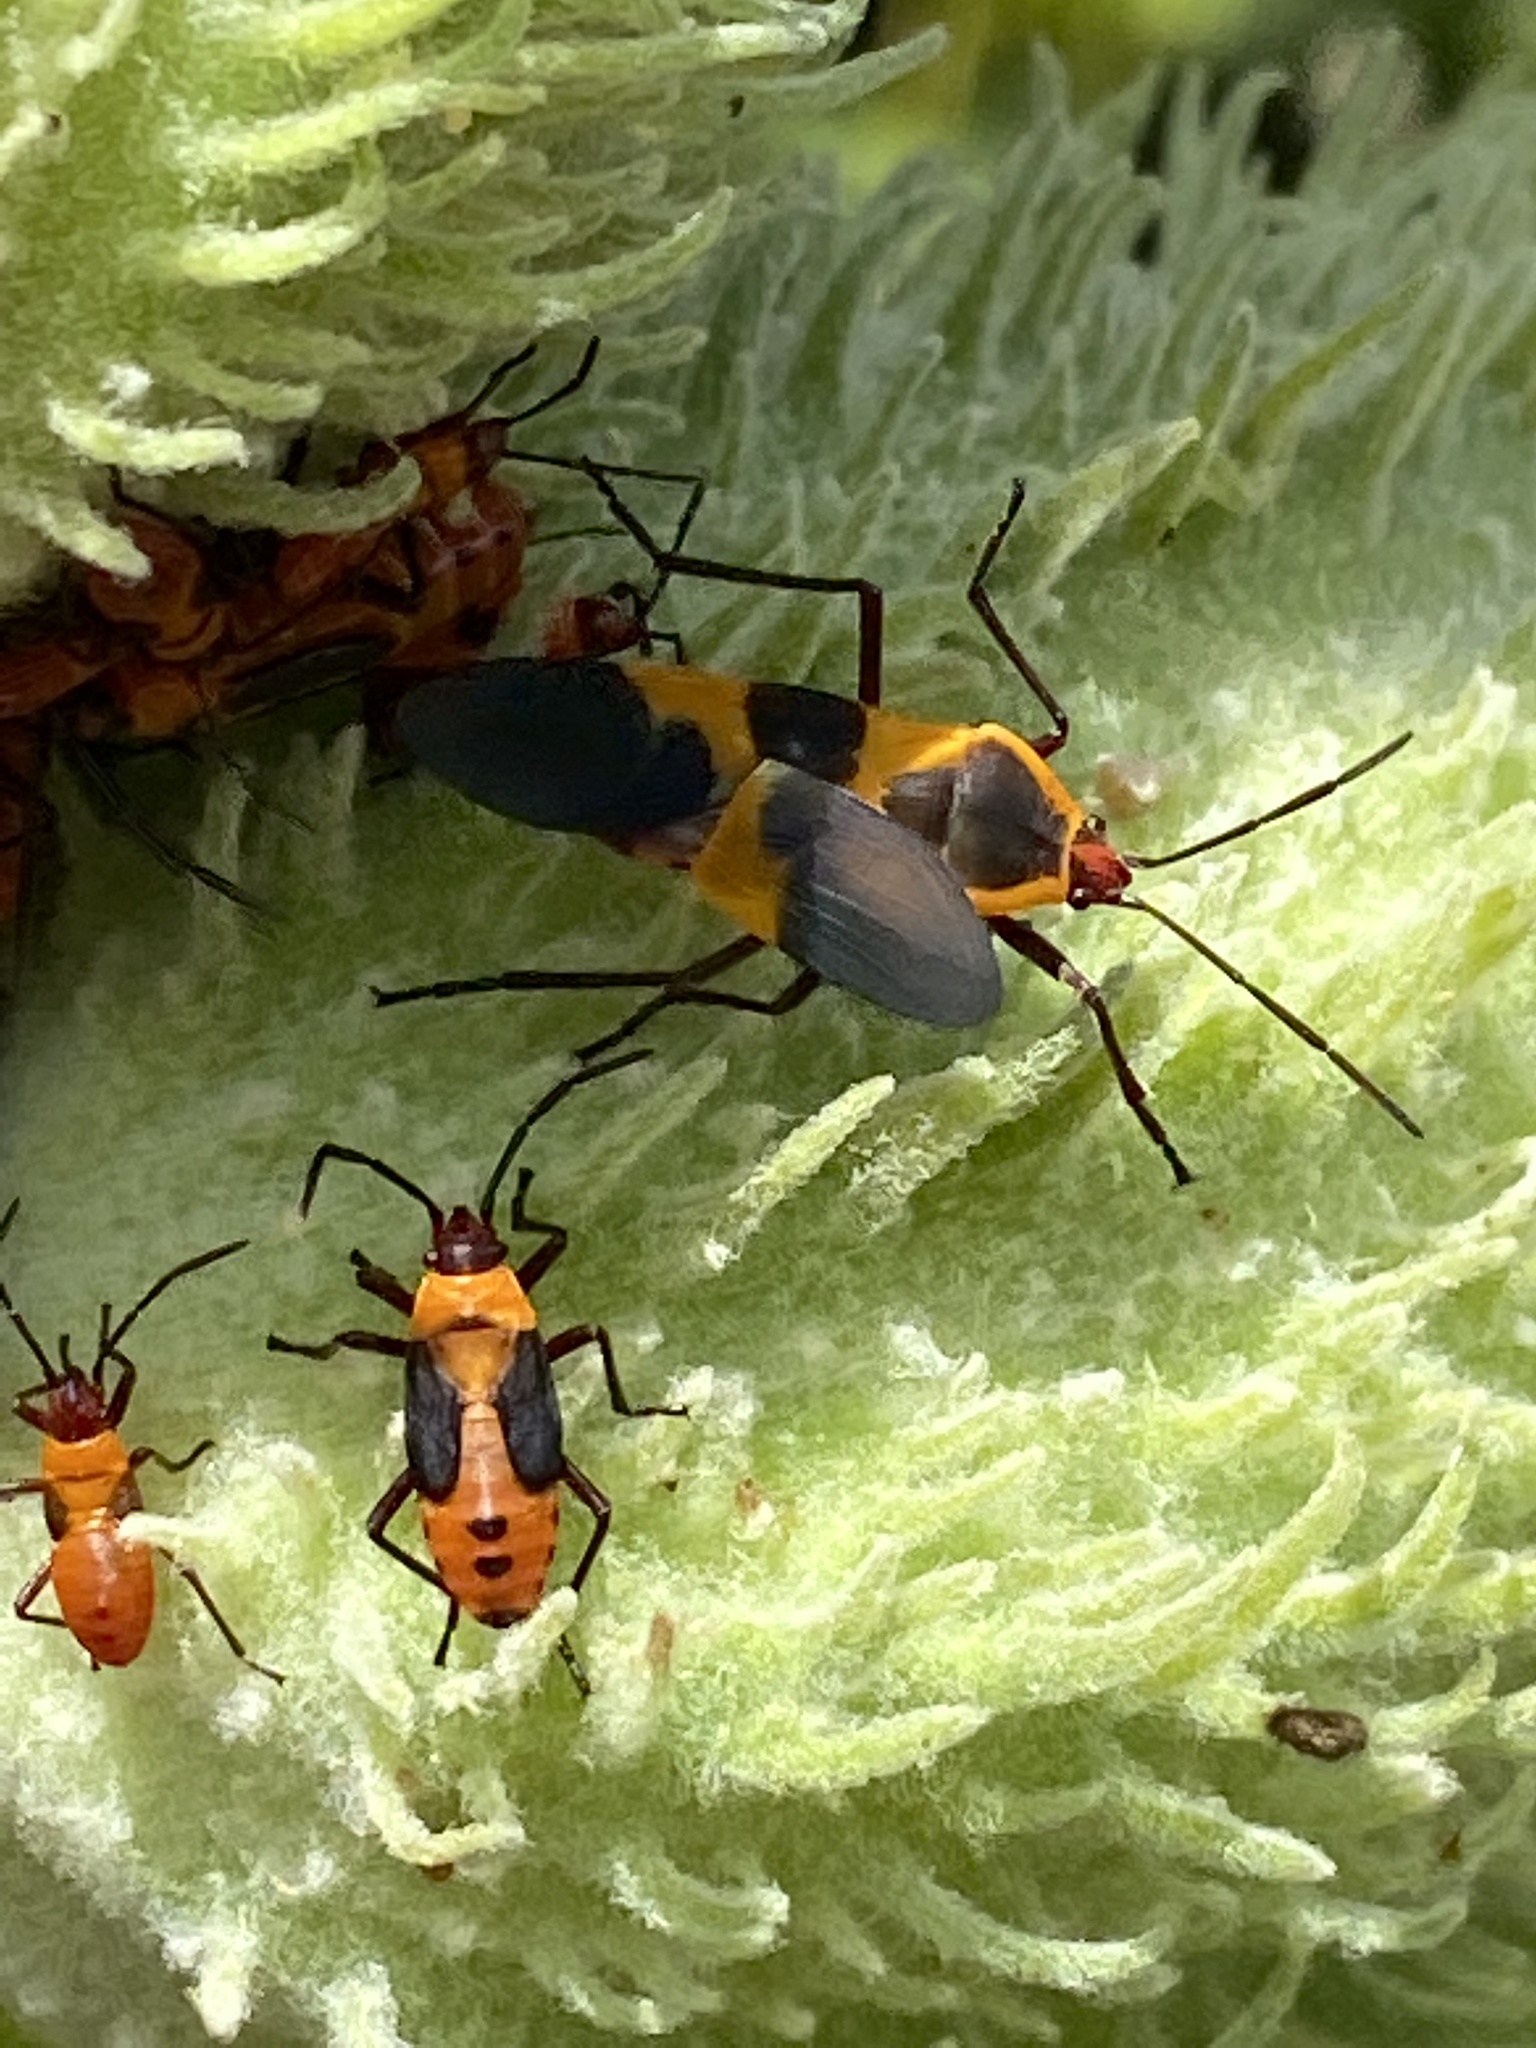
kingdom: Animalia
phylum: Arthropoda
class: Insecta
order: Hemiptera
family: Lygaeidae
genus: Oncopeltus
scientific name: Oncopeltus fasciatus
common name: Large milkweed bug
